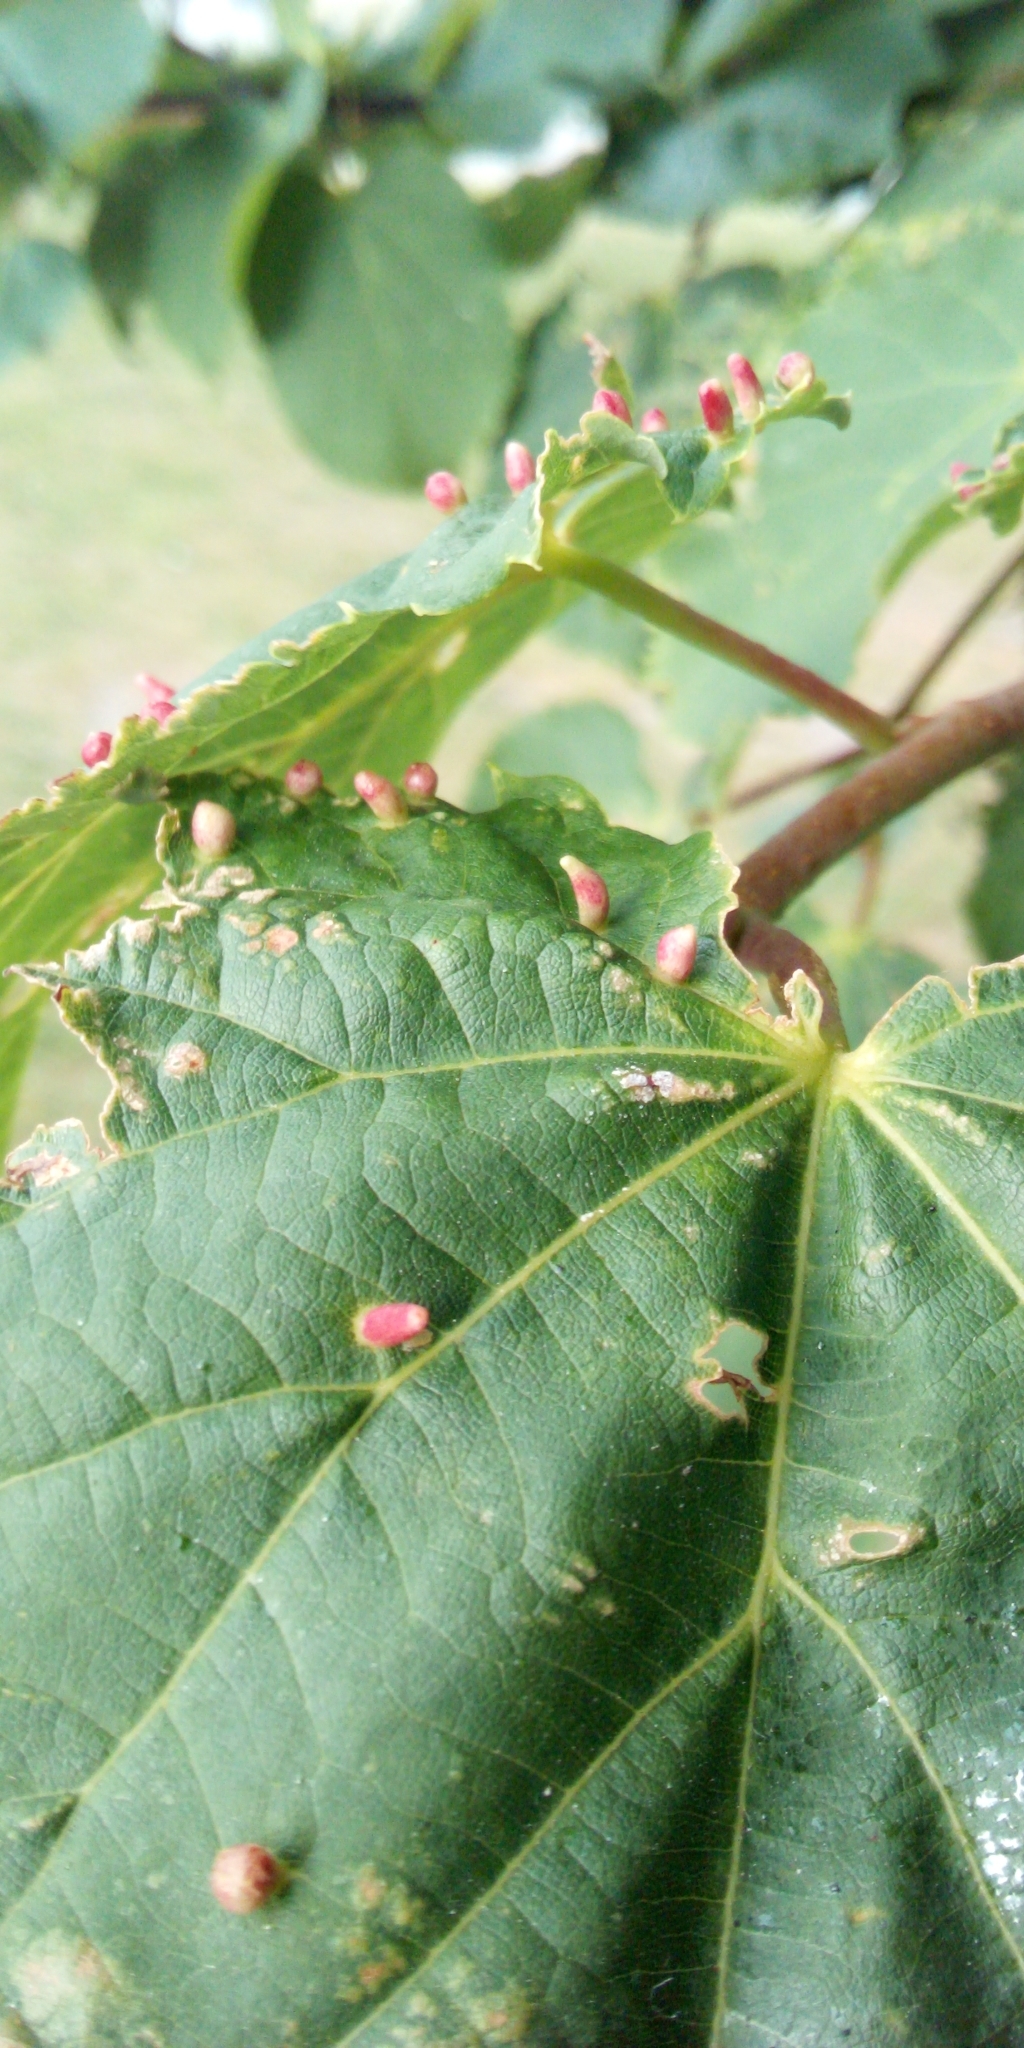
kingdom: Animalia
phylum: Arthropoda
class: Arachnida
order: Trombidiformes
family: Eriophyidae
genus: Eriophyes
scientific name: Eriophyes tiliae
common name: Red nail gall mite
